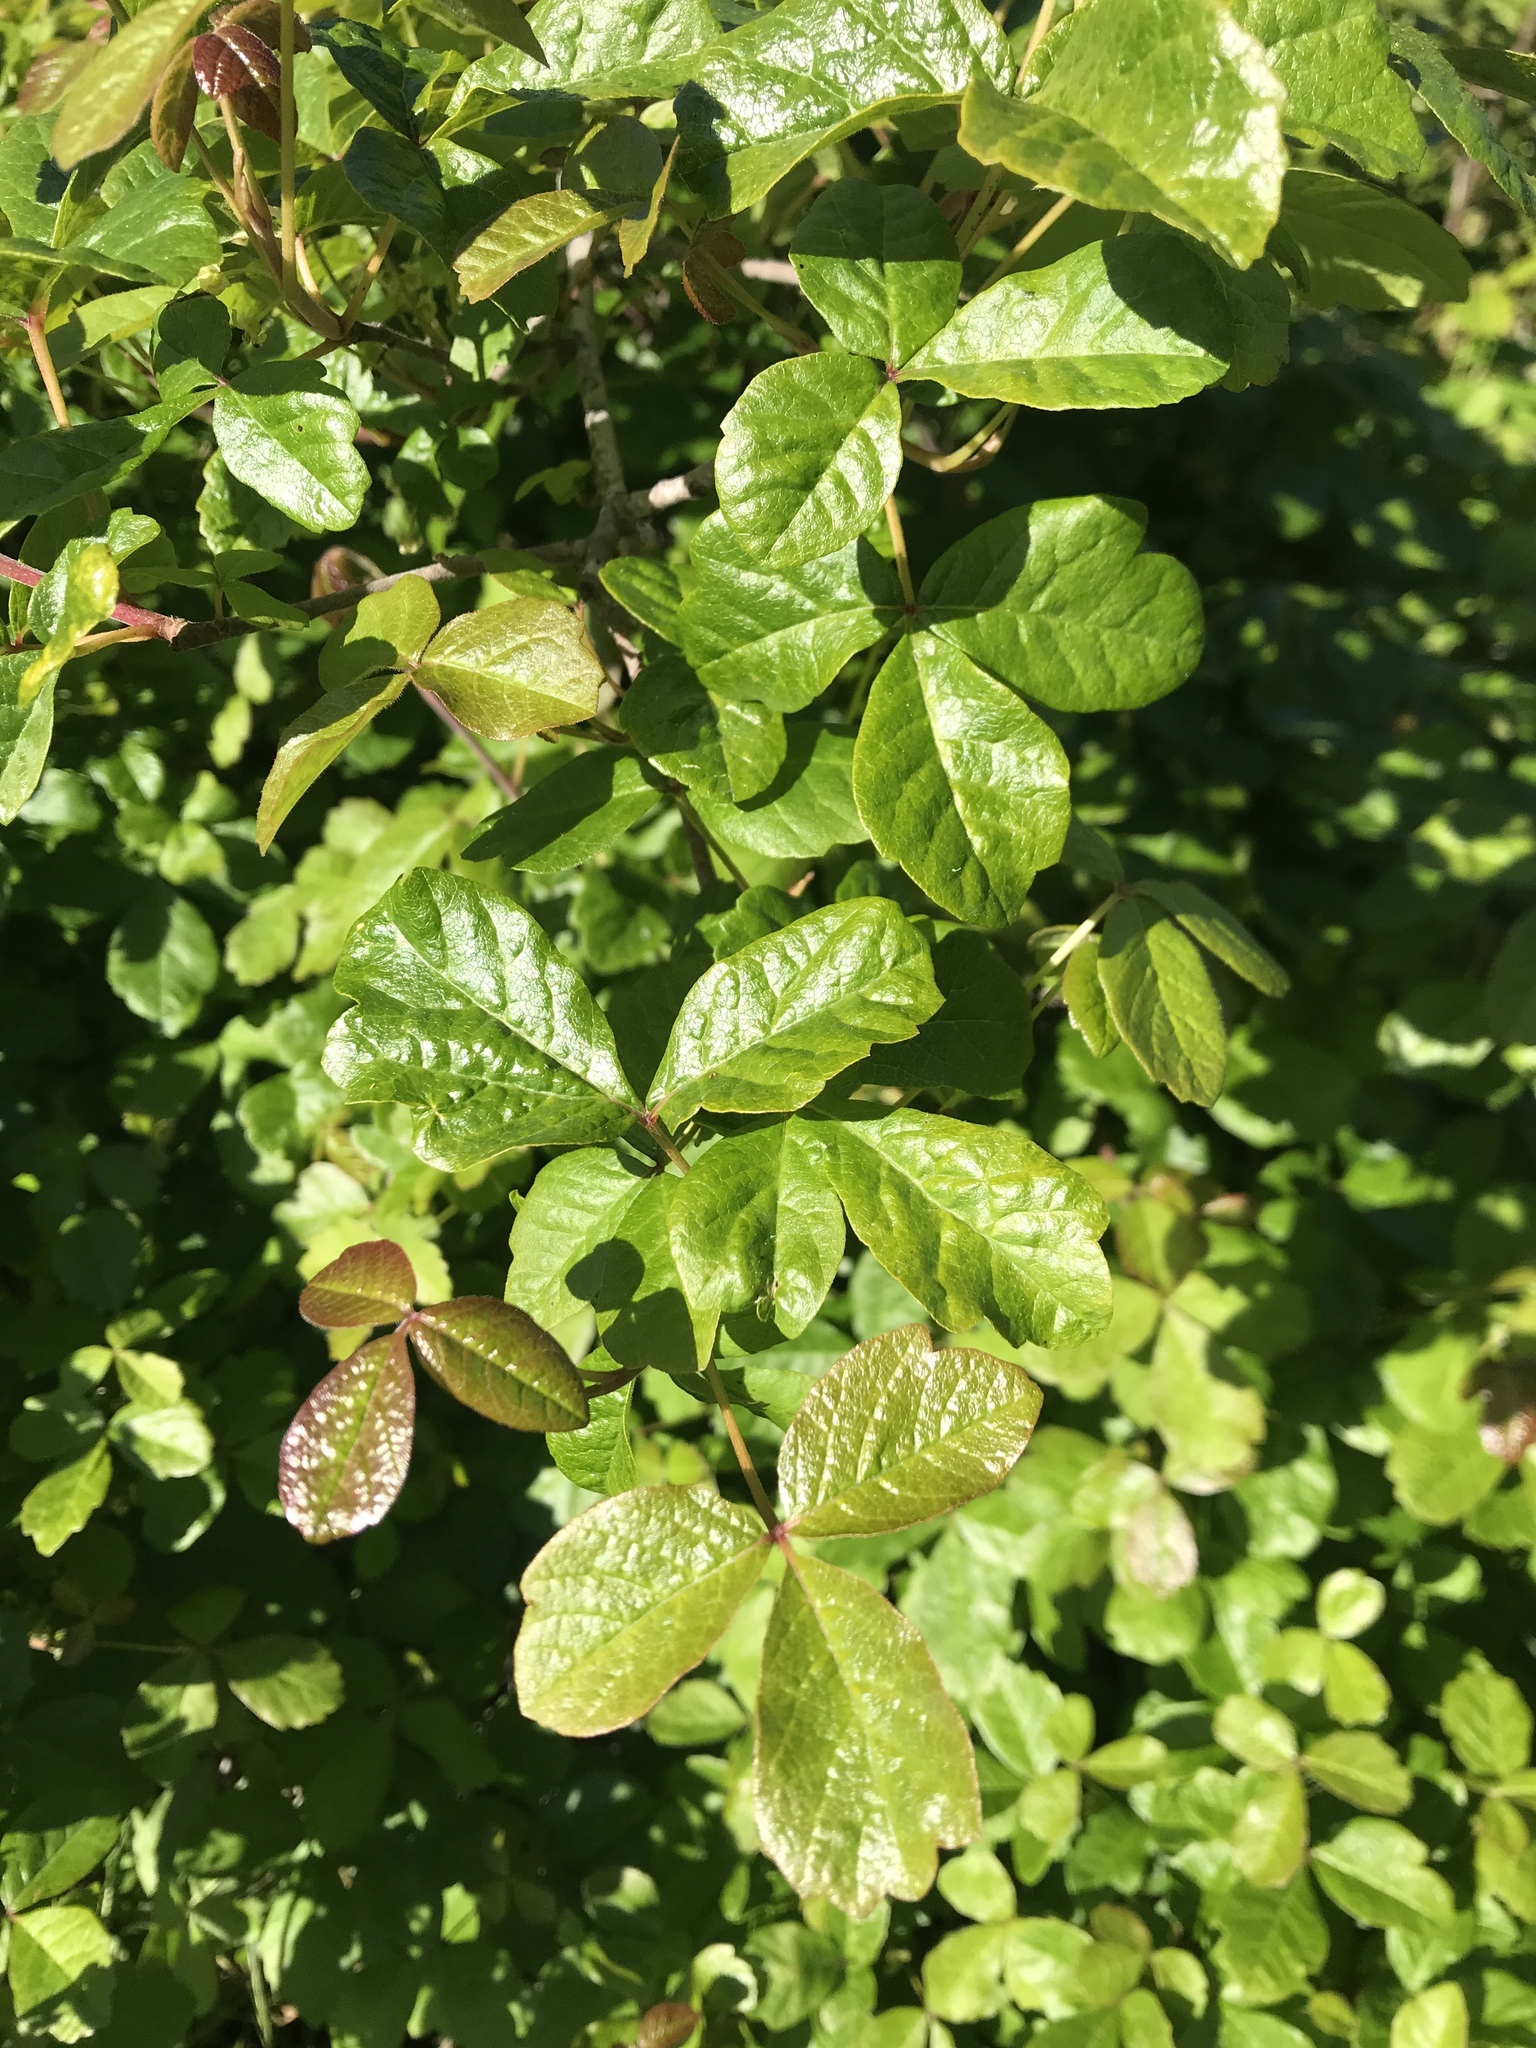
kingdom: Plantae
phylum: Tracheophyta
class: Magnoliopsida
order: Sapindales
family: Anacardiaceae
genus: Toxicodendron
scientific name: Toxicodendron diversilobum
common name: Pacific poison-oak
